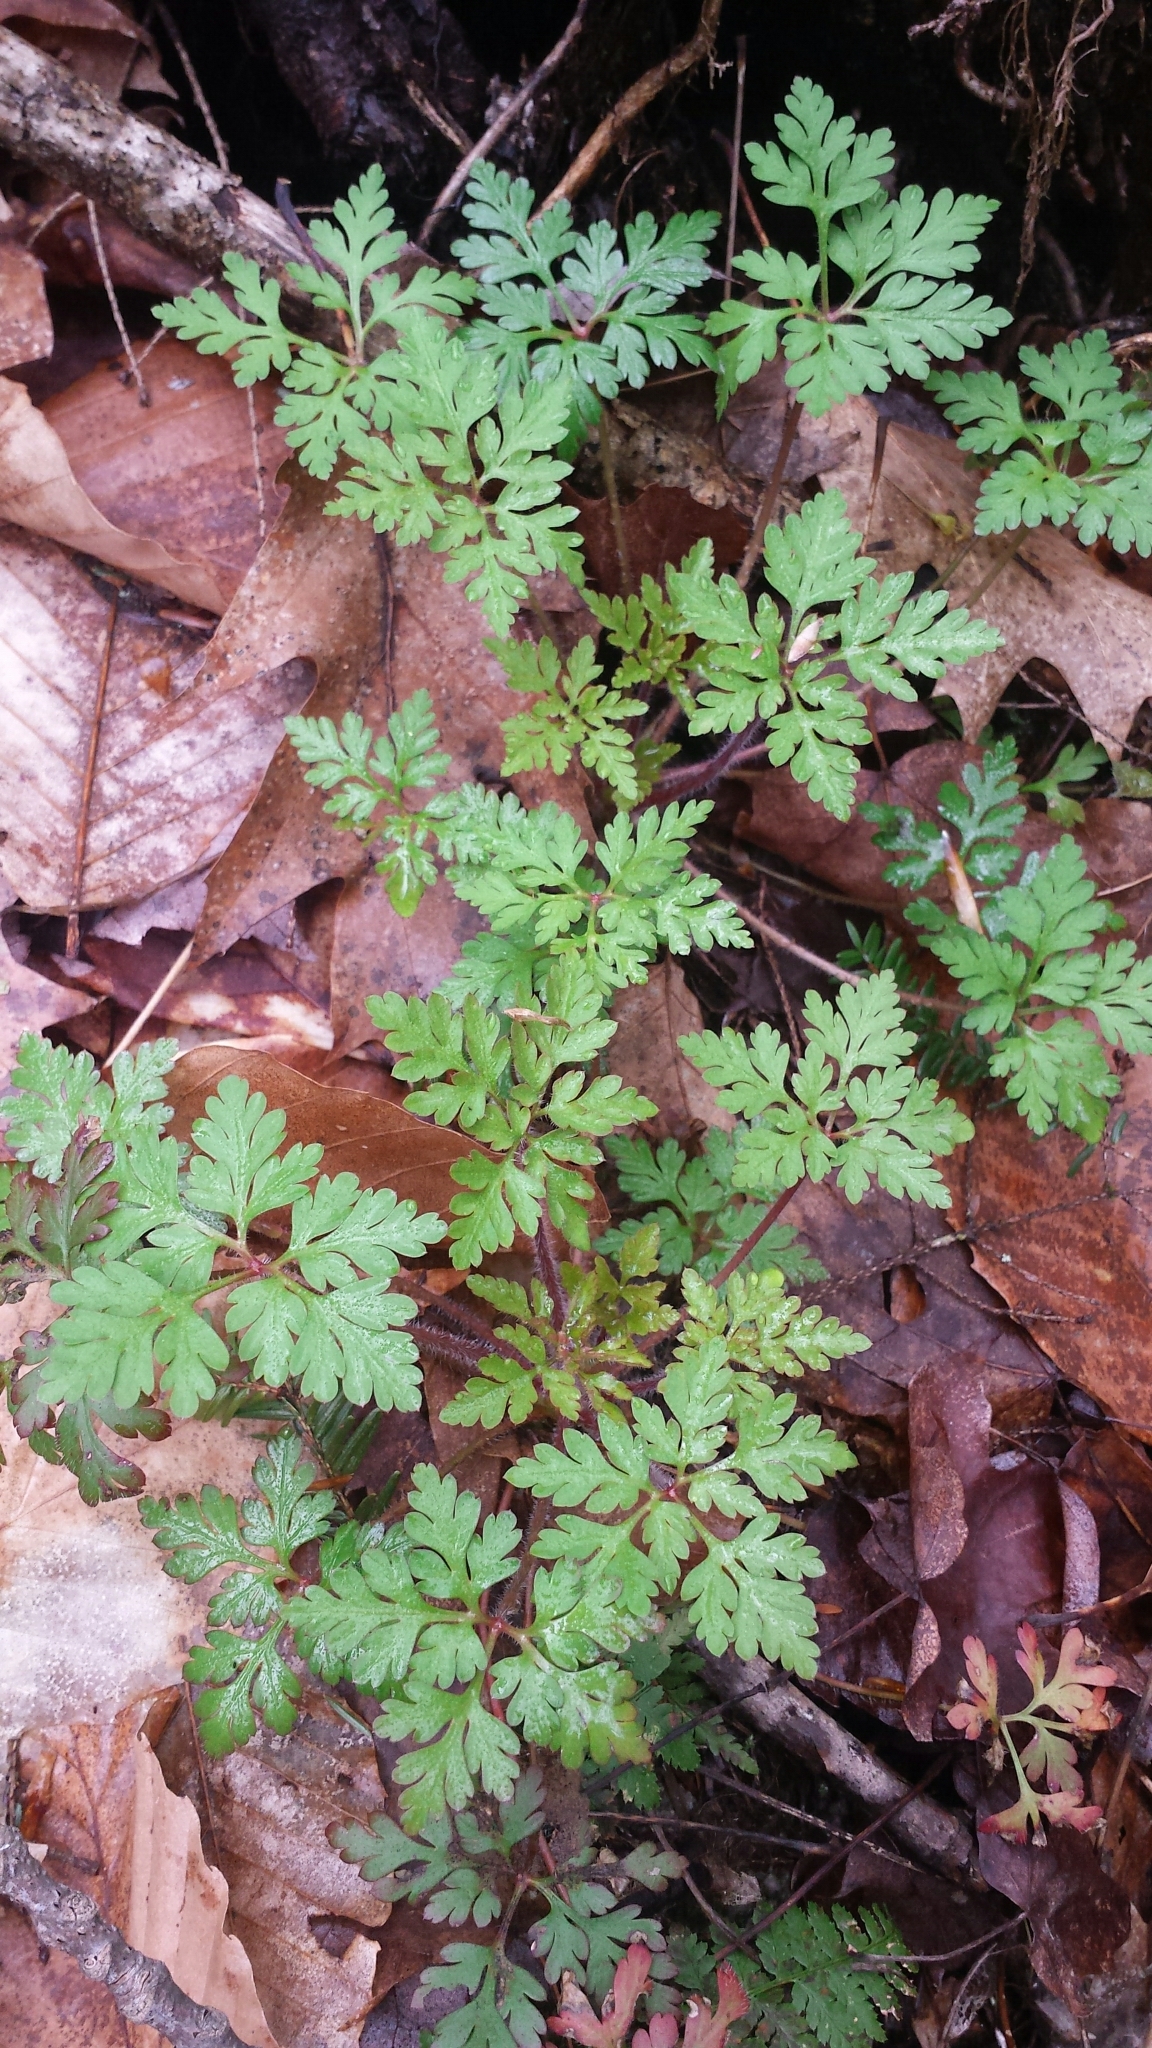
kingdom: Plantae
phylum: Tracheophyta
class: Magnoliopsida
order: Geraniales
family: Geraniaceae
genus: Geranium
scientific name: Geranium robertianum
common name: Herb-robert
